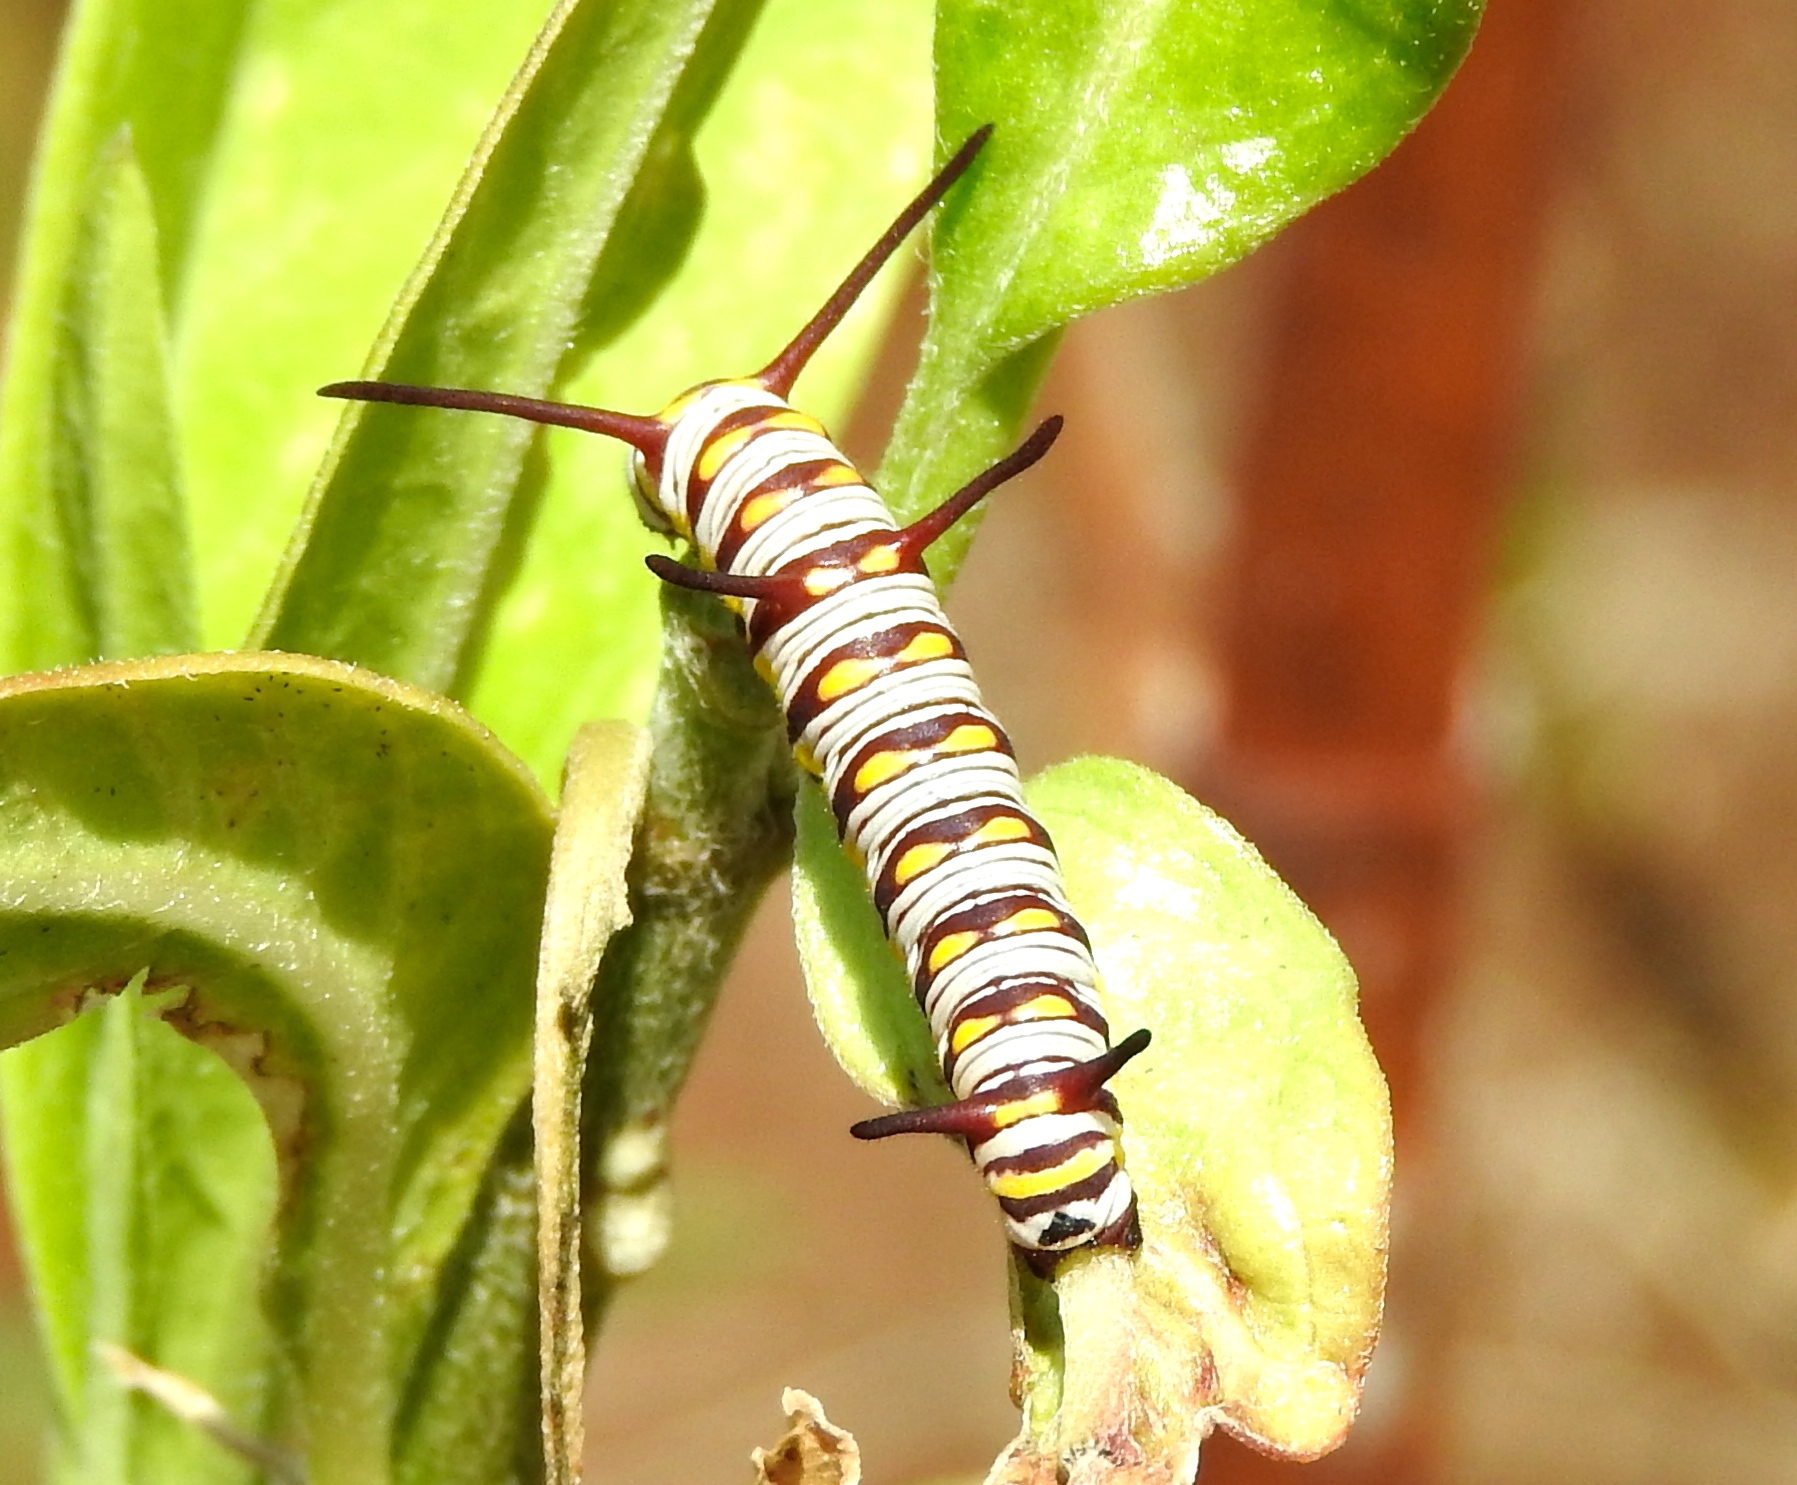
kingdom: Animalia
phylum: Arthropoda
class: Insecta
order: Lepidoptera
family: Nymphalidae
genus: Danaus
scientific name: Danaus gilippus
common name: Queen
